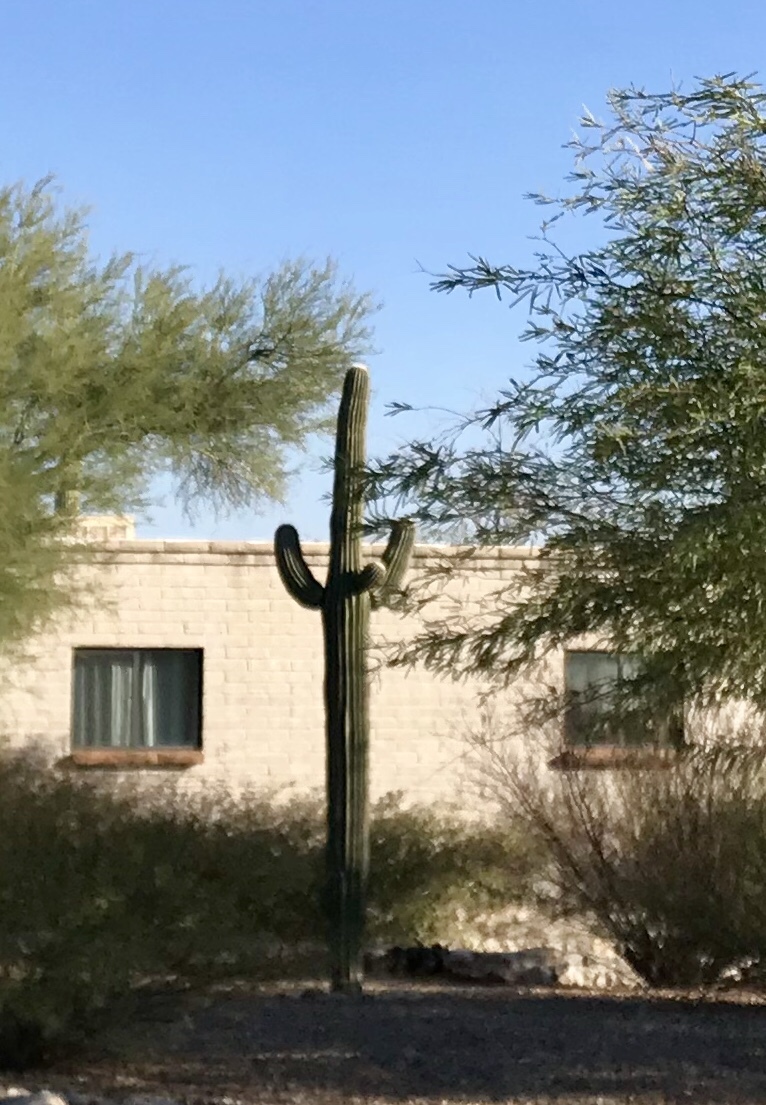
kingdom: Plantae
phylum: Tracheophyta
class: Magnoliopsida
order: Caryophyllales
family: Cactaceae
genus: Carnegiea
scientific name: Carnegiea gigantea
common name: Saguaro
